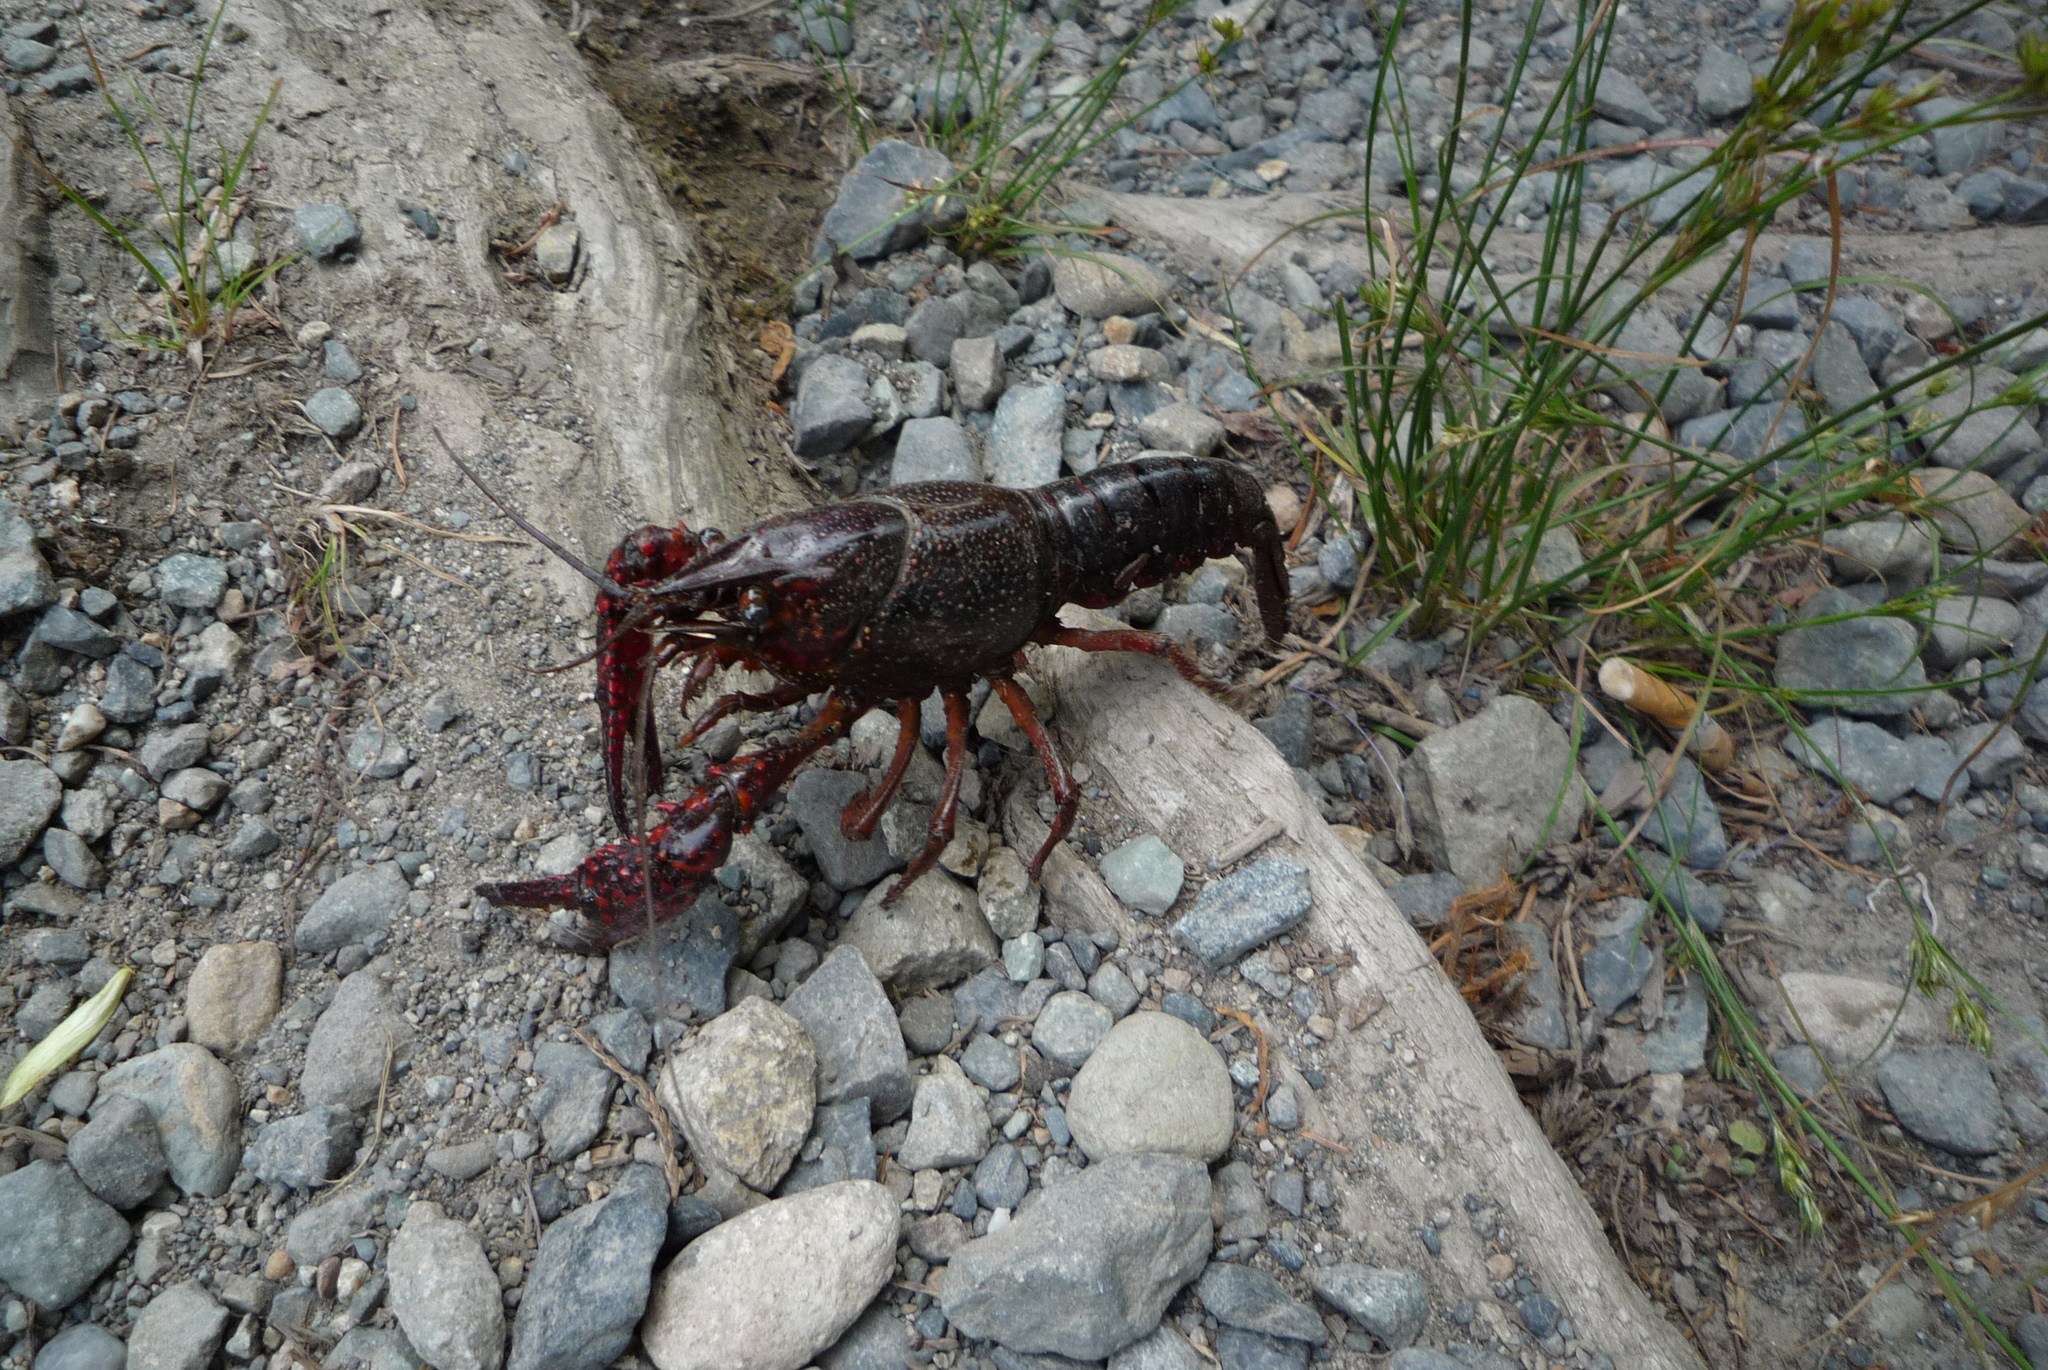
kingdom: Animalia
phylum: Arthropoda
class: Malacostraca
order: Decapoda
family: Cambaridae
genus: Procambarus
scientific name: Procambarus clarkii
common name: Red swamp crayfish
